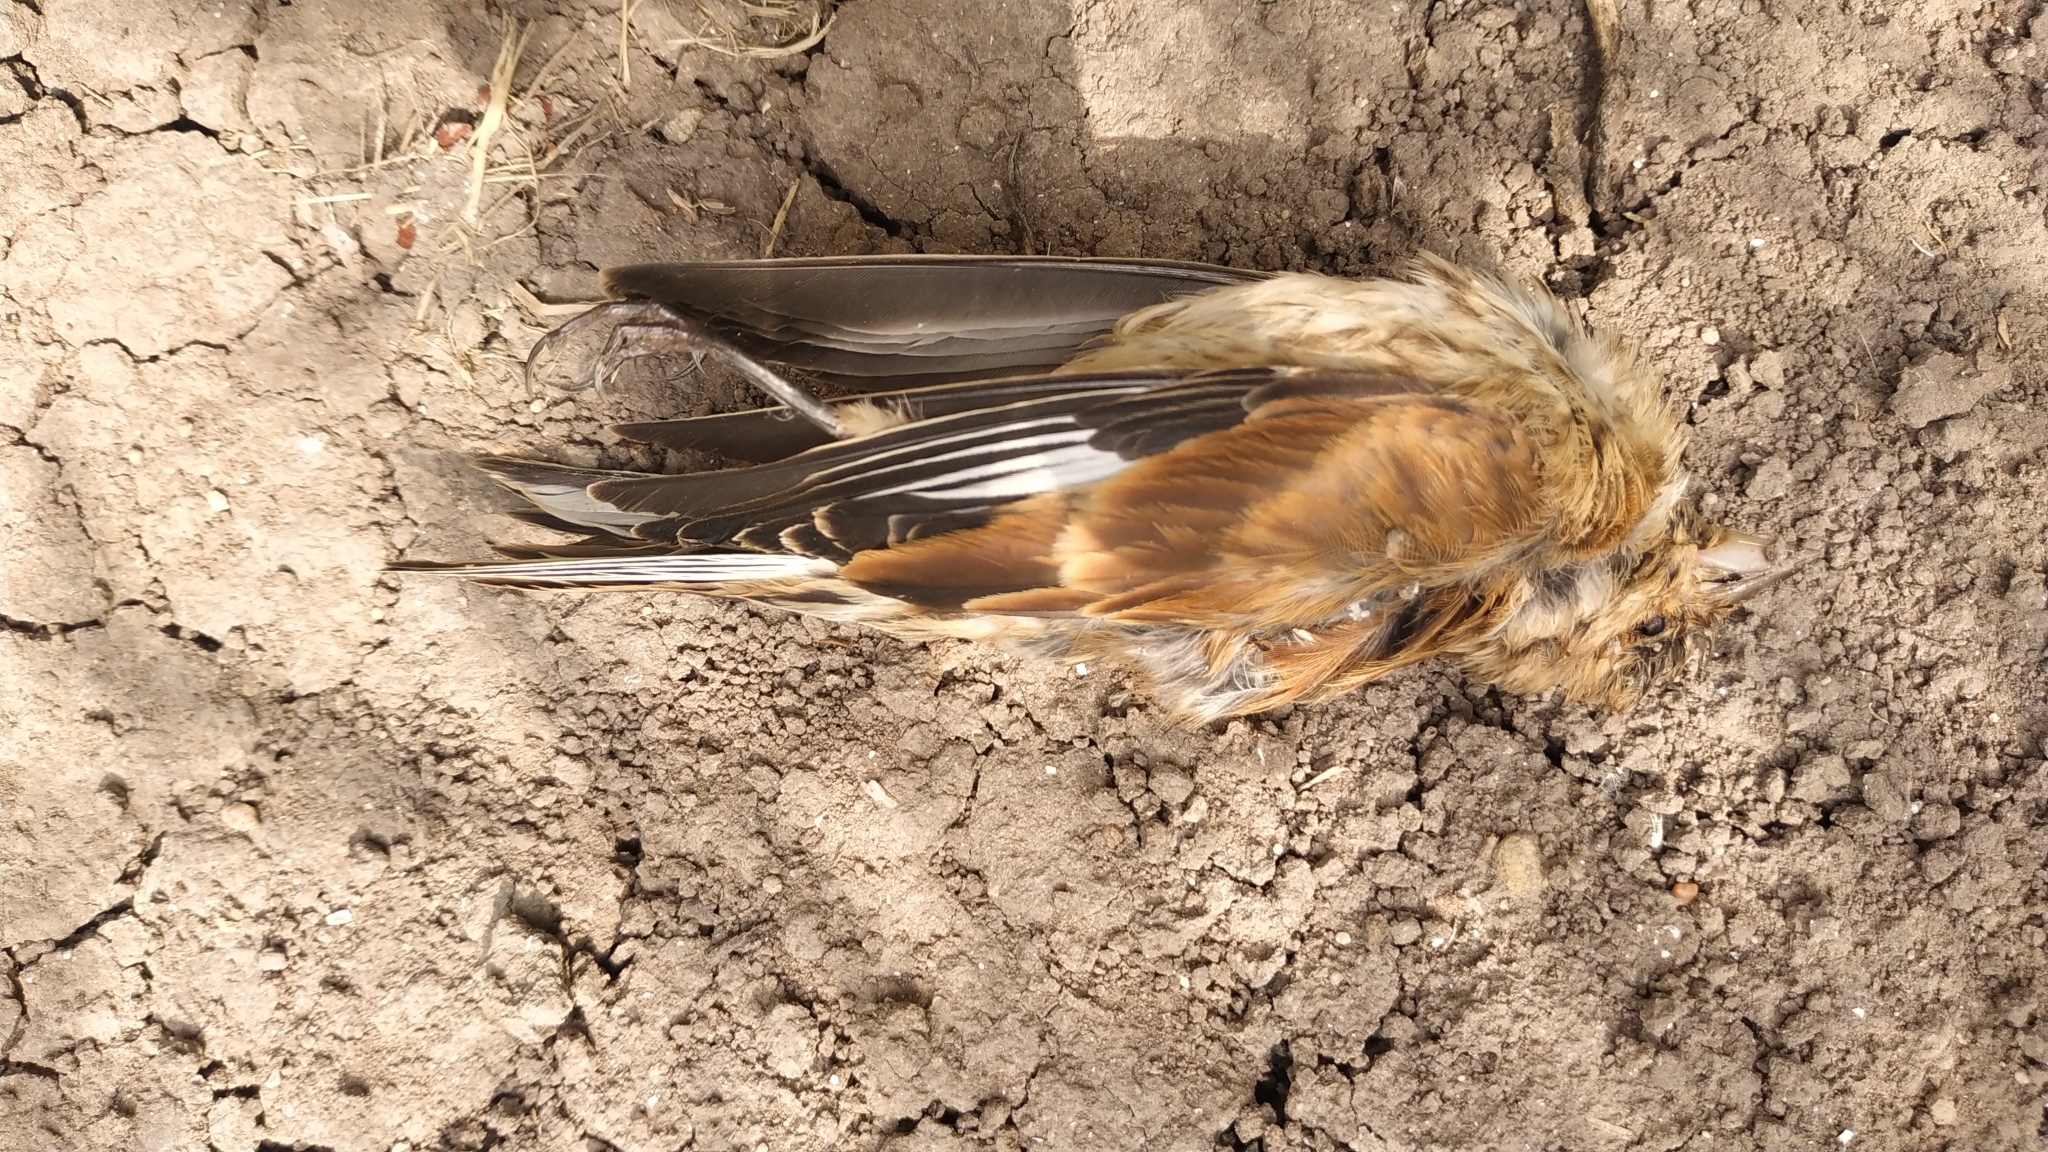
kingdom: Animalia
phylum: Chordata
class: Aves
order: Passeriformes
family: Fringillidae
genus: Linaria
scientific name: Linaria cannabina
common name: Common linnet
